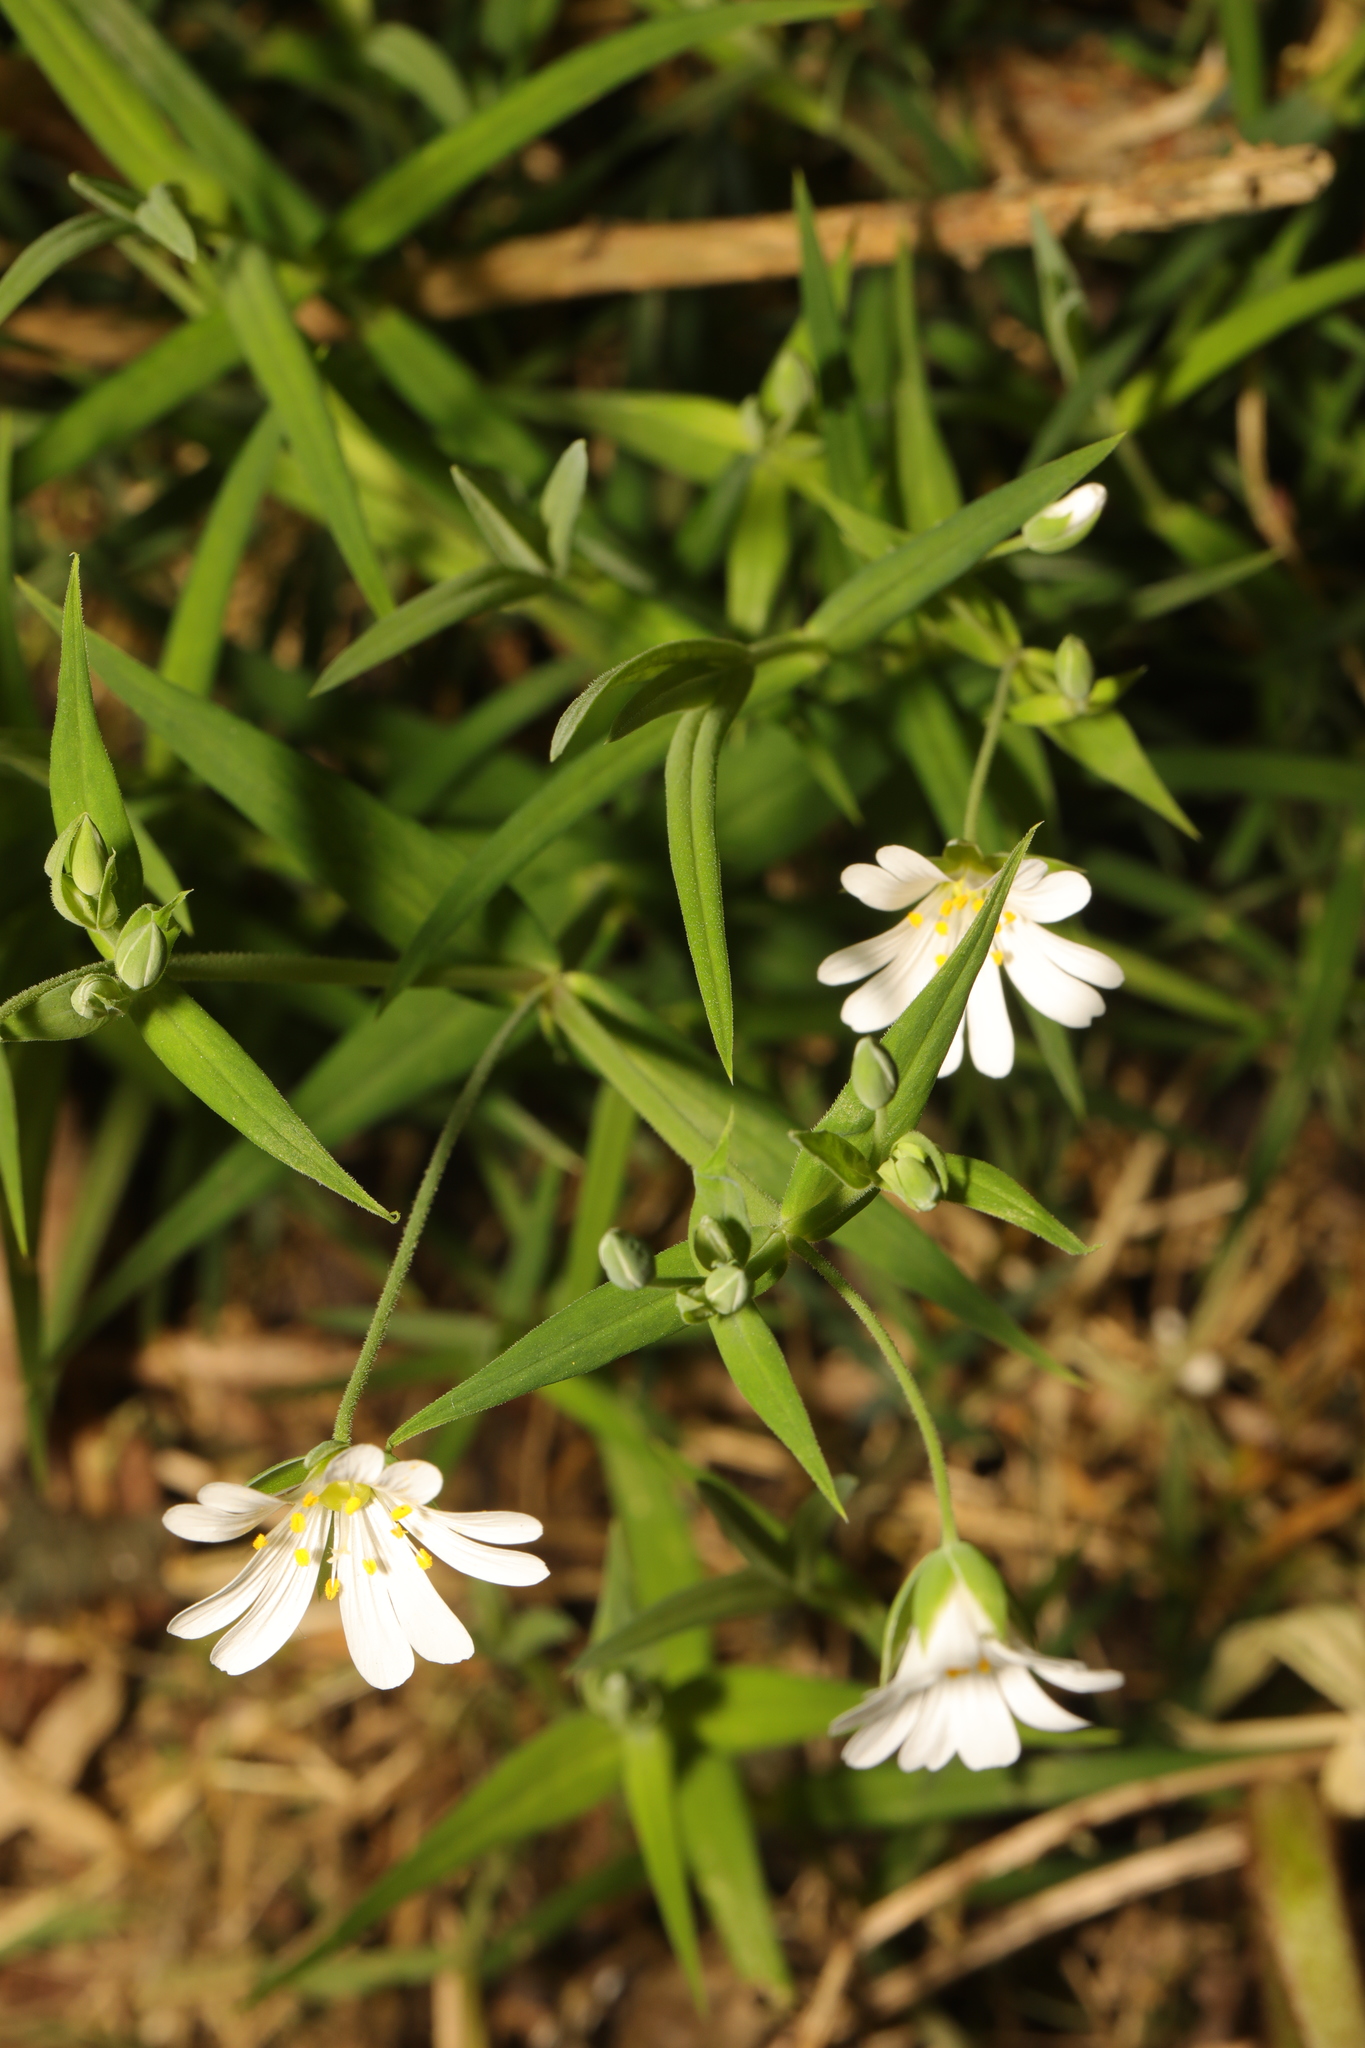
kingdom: Plantae
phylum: Tracheophyta
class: Magnoliopsida
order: Caryophyllales
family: Caryophyllaceae
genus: Rabelera
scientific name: Rabelera holostea
